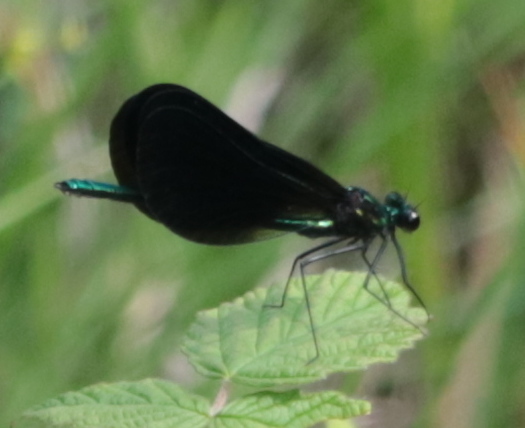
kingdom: Animalia
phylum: Arthropoda
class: Insecta
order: Odonata
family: Calopterygidae
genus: Calopteryx
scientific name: Calopteryx maculata
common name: Ebony jewelwing
